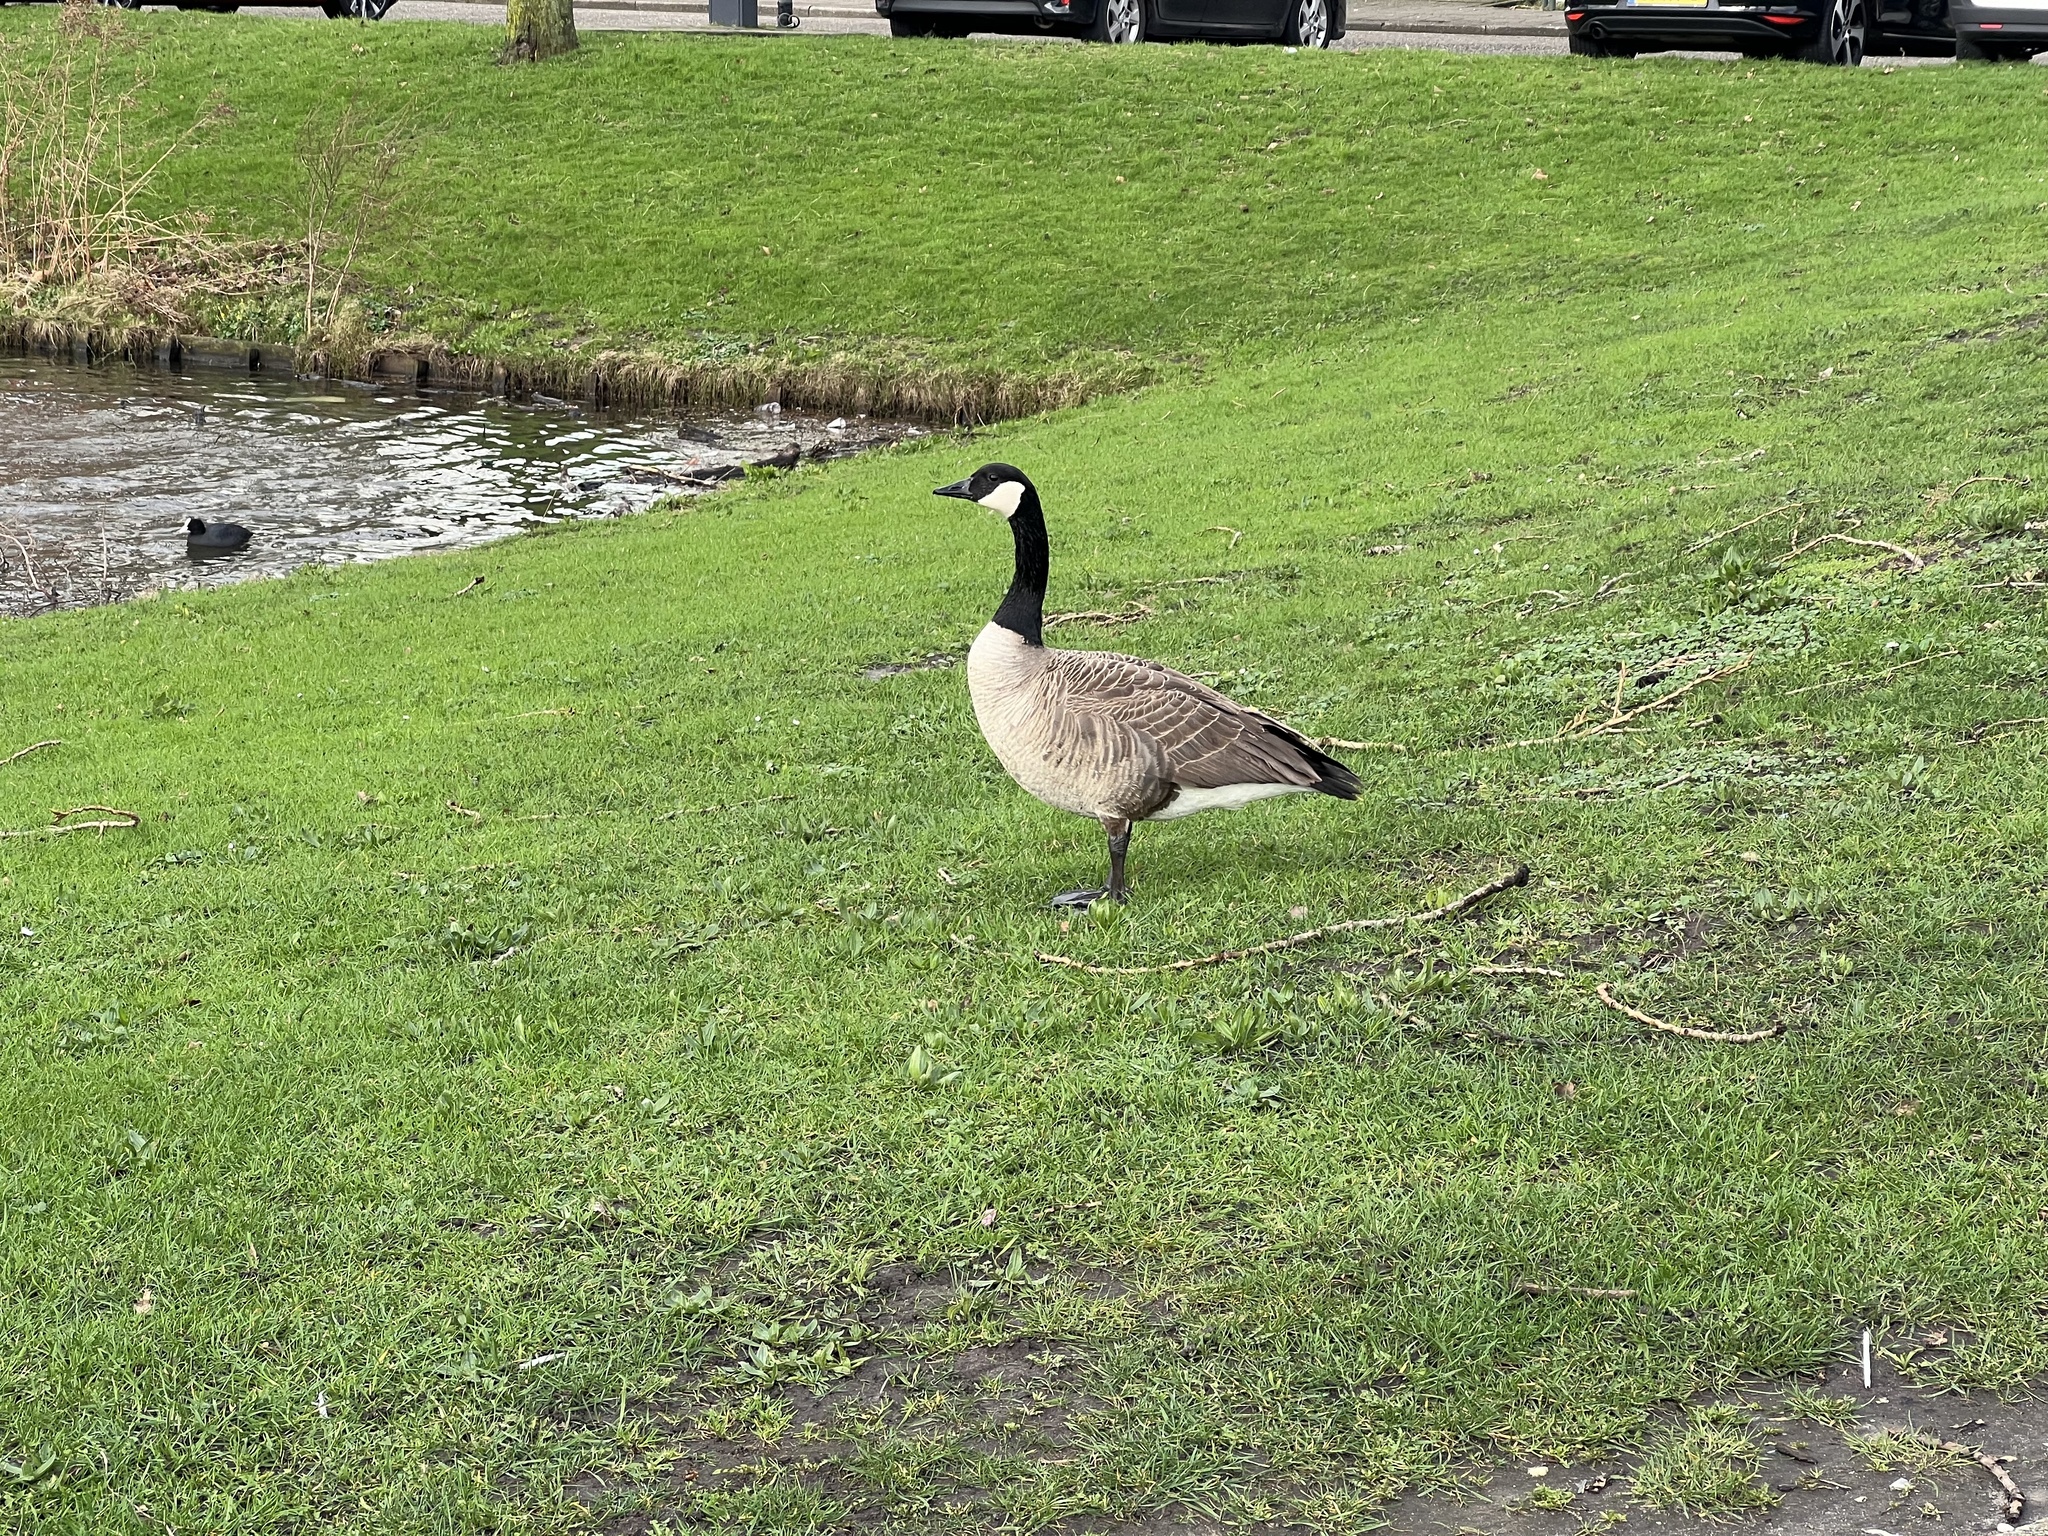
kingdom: Animalia
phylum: Chordata
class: Aves
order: Anseriformes
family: Anatidae
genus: Branta
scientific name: Branta canadensis
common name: Canada goose
